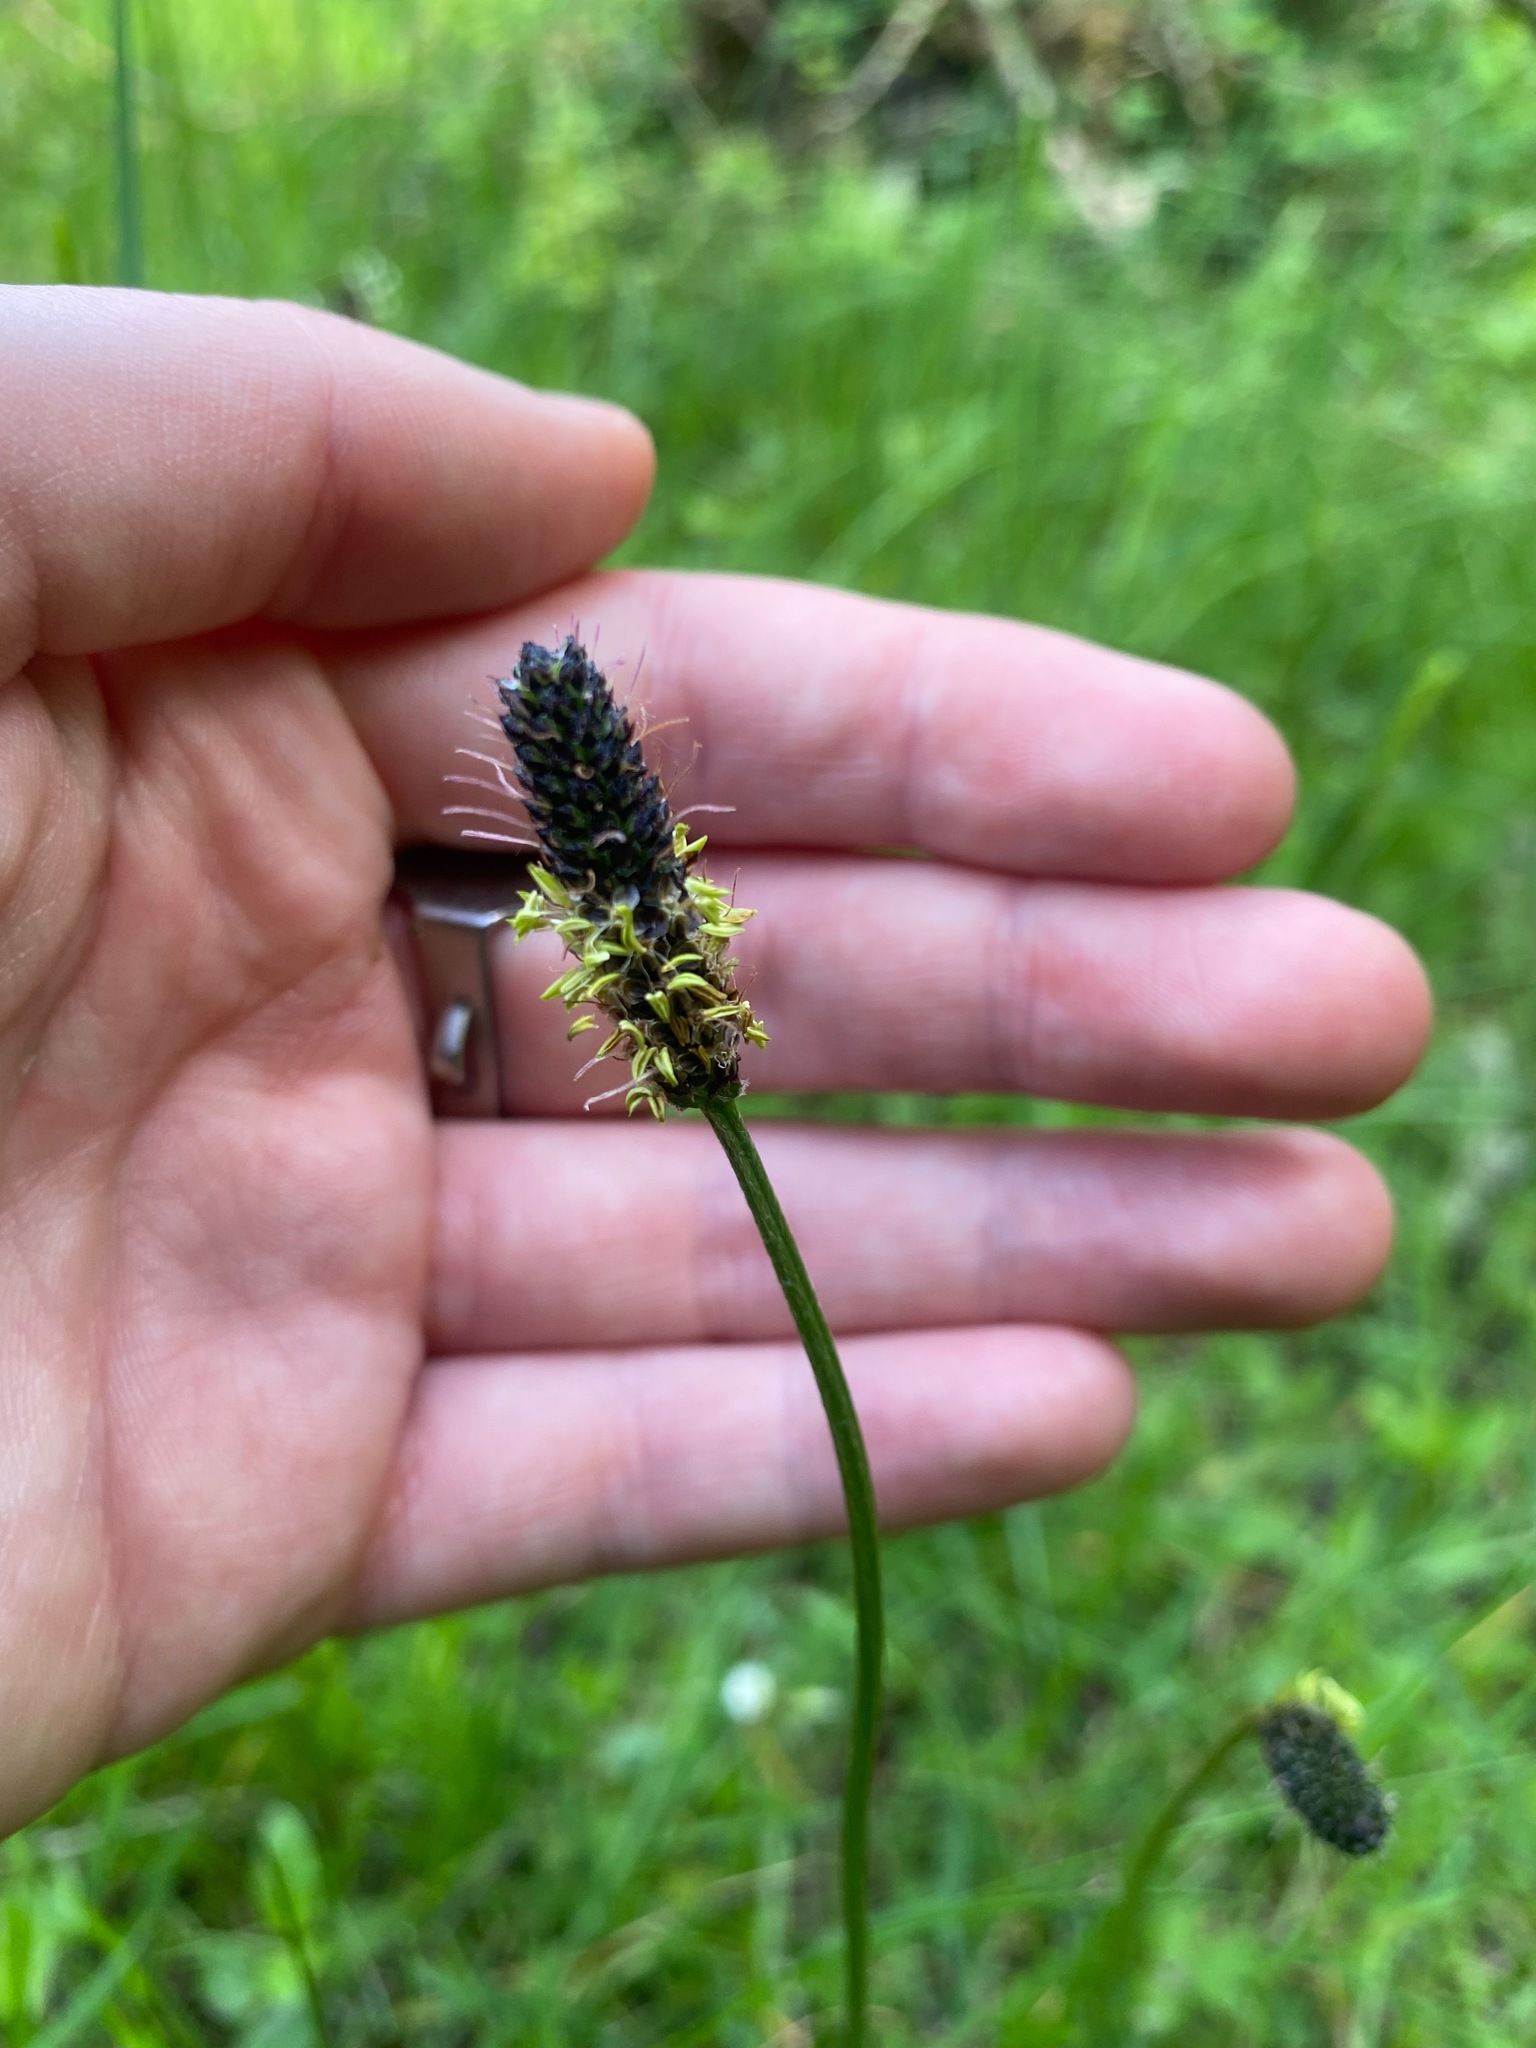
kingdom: Plantae
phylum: Tracheophyta
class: Magnoliopsida
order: Lamiales
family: Plantaginaceae
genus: Plantago
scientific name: Plantago lanceolata
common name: Ribwort plantain
